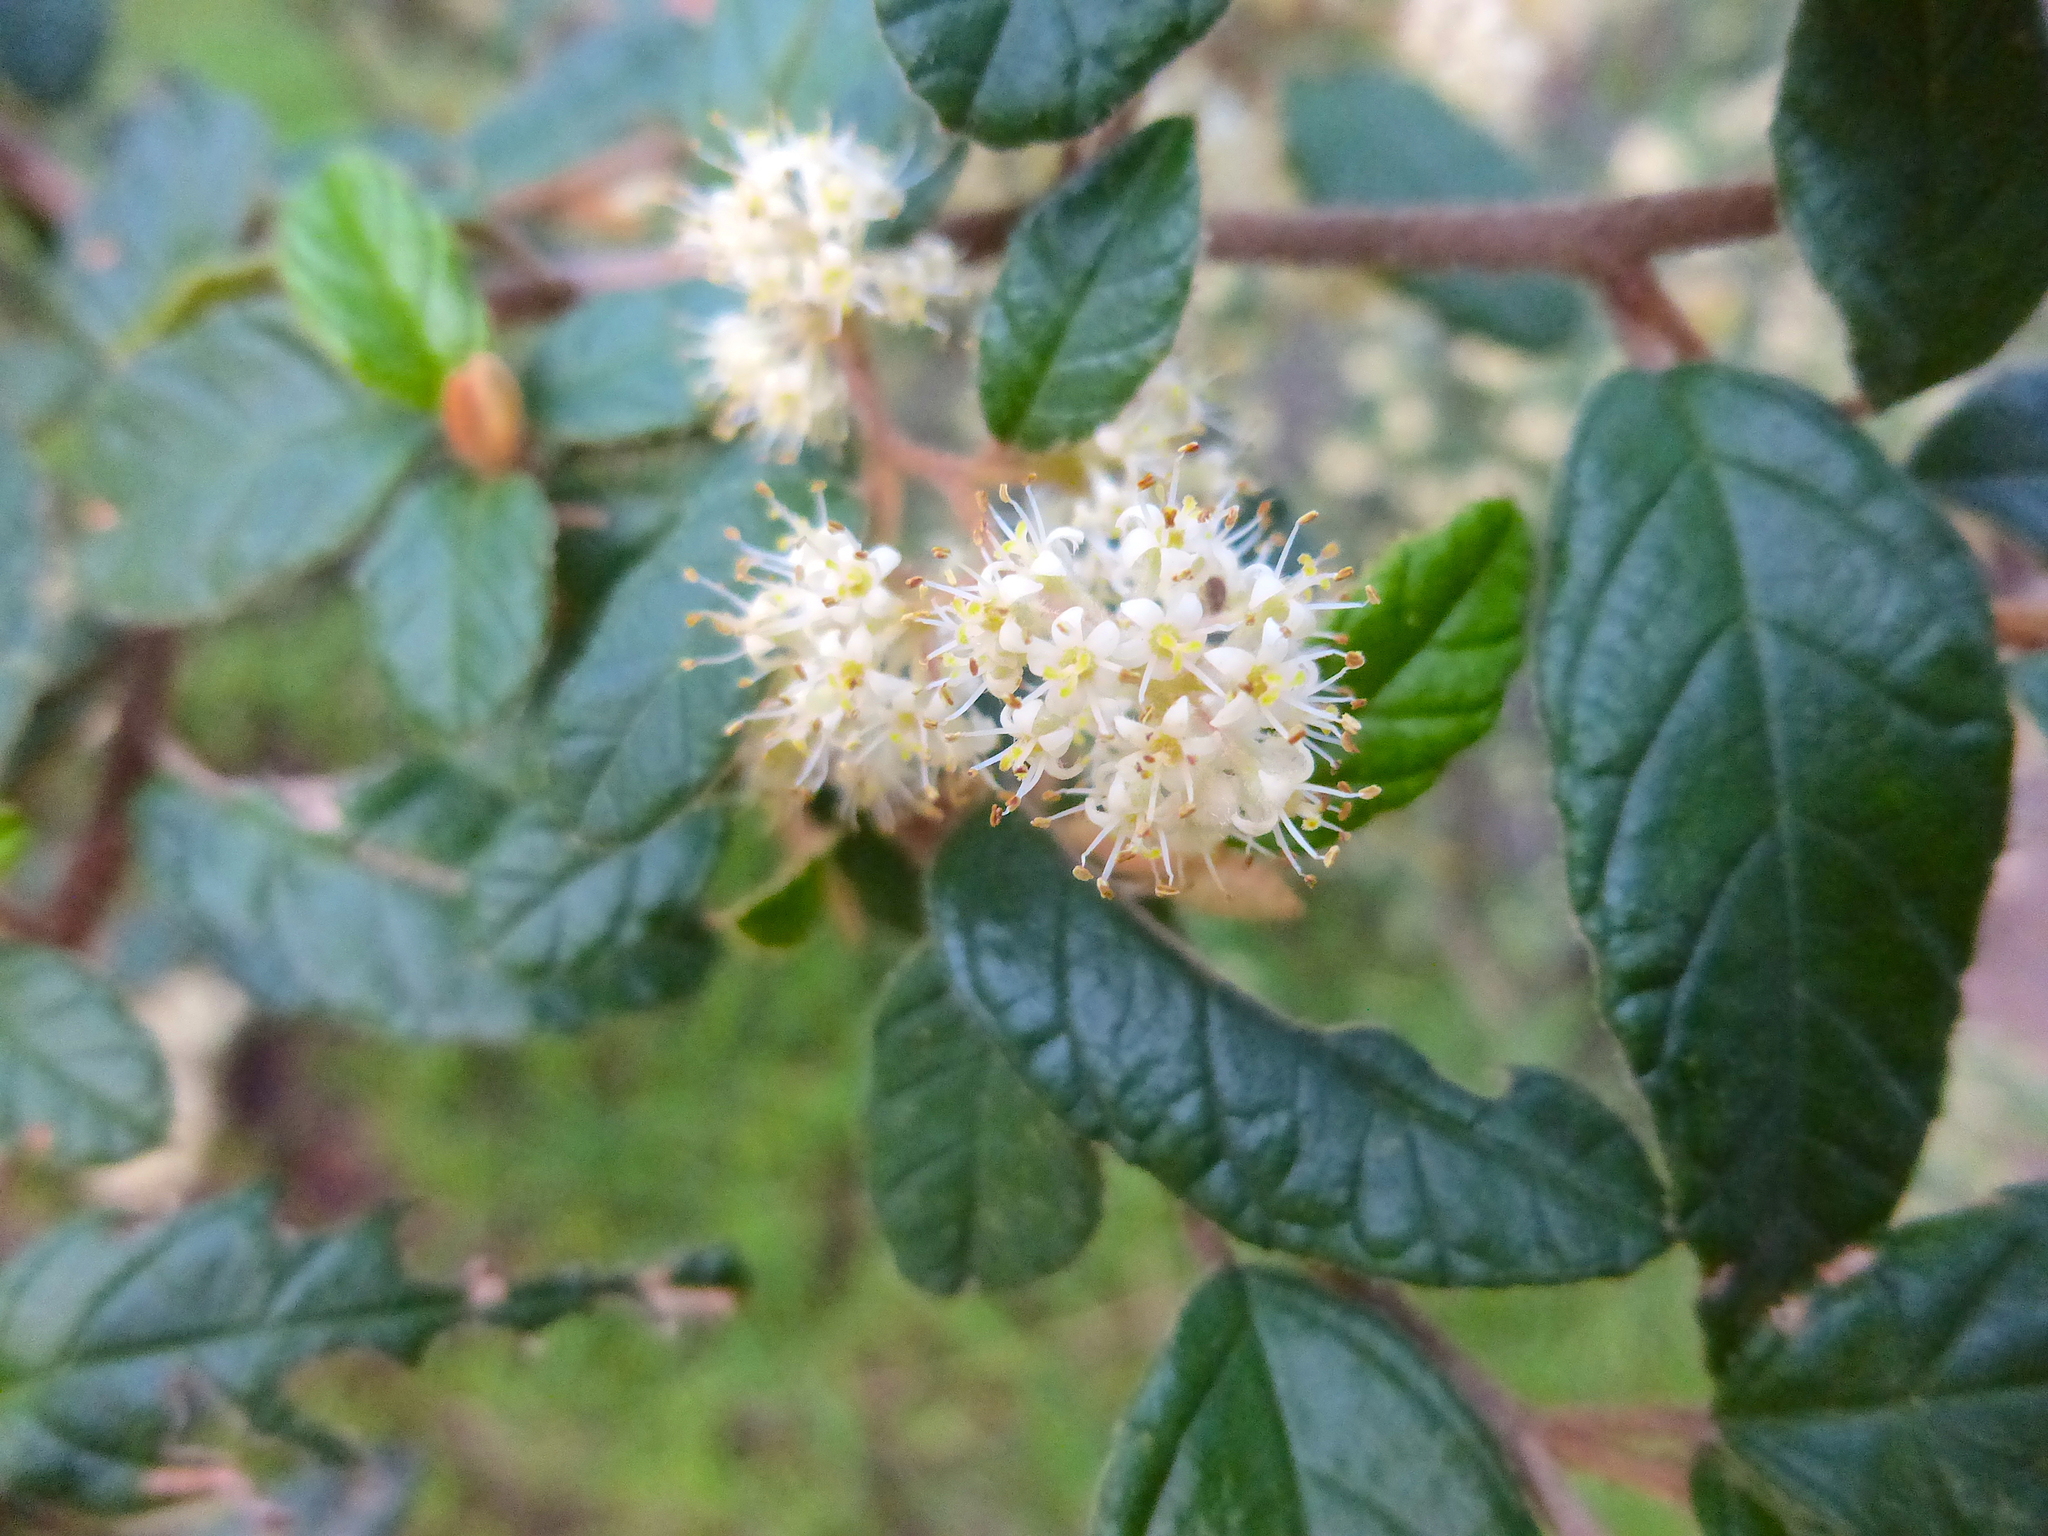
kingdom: Plantae
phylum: Tracheophyta
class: Magnoliopsida
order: Rosales
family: Rhamnaceae
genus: Pomaderris
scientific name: Pomaderris prunifolia
